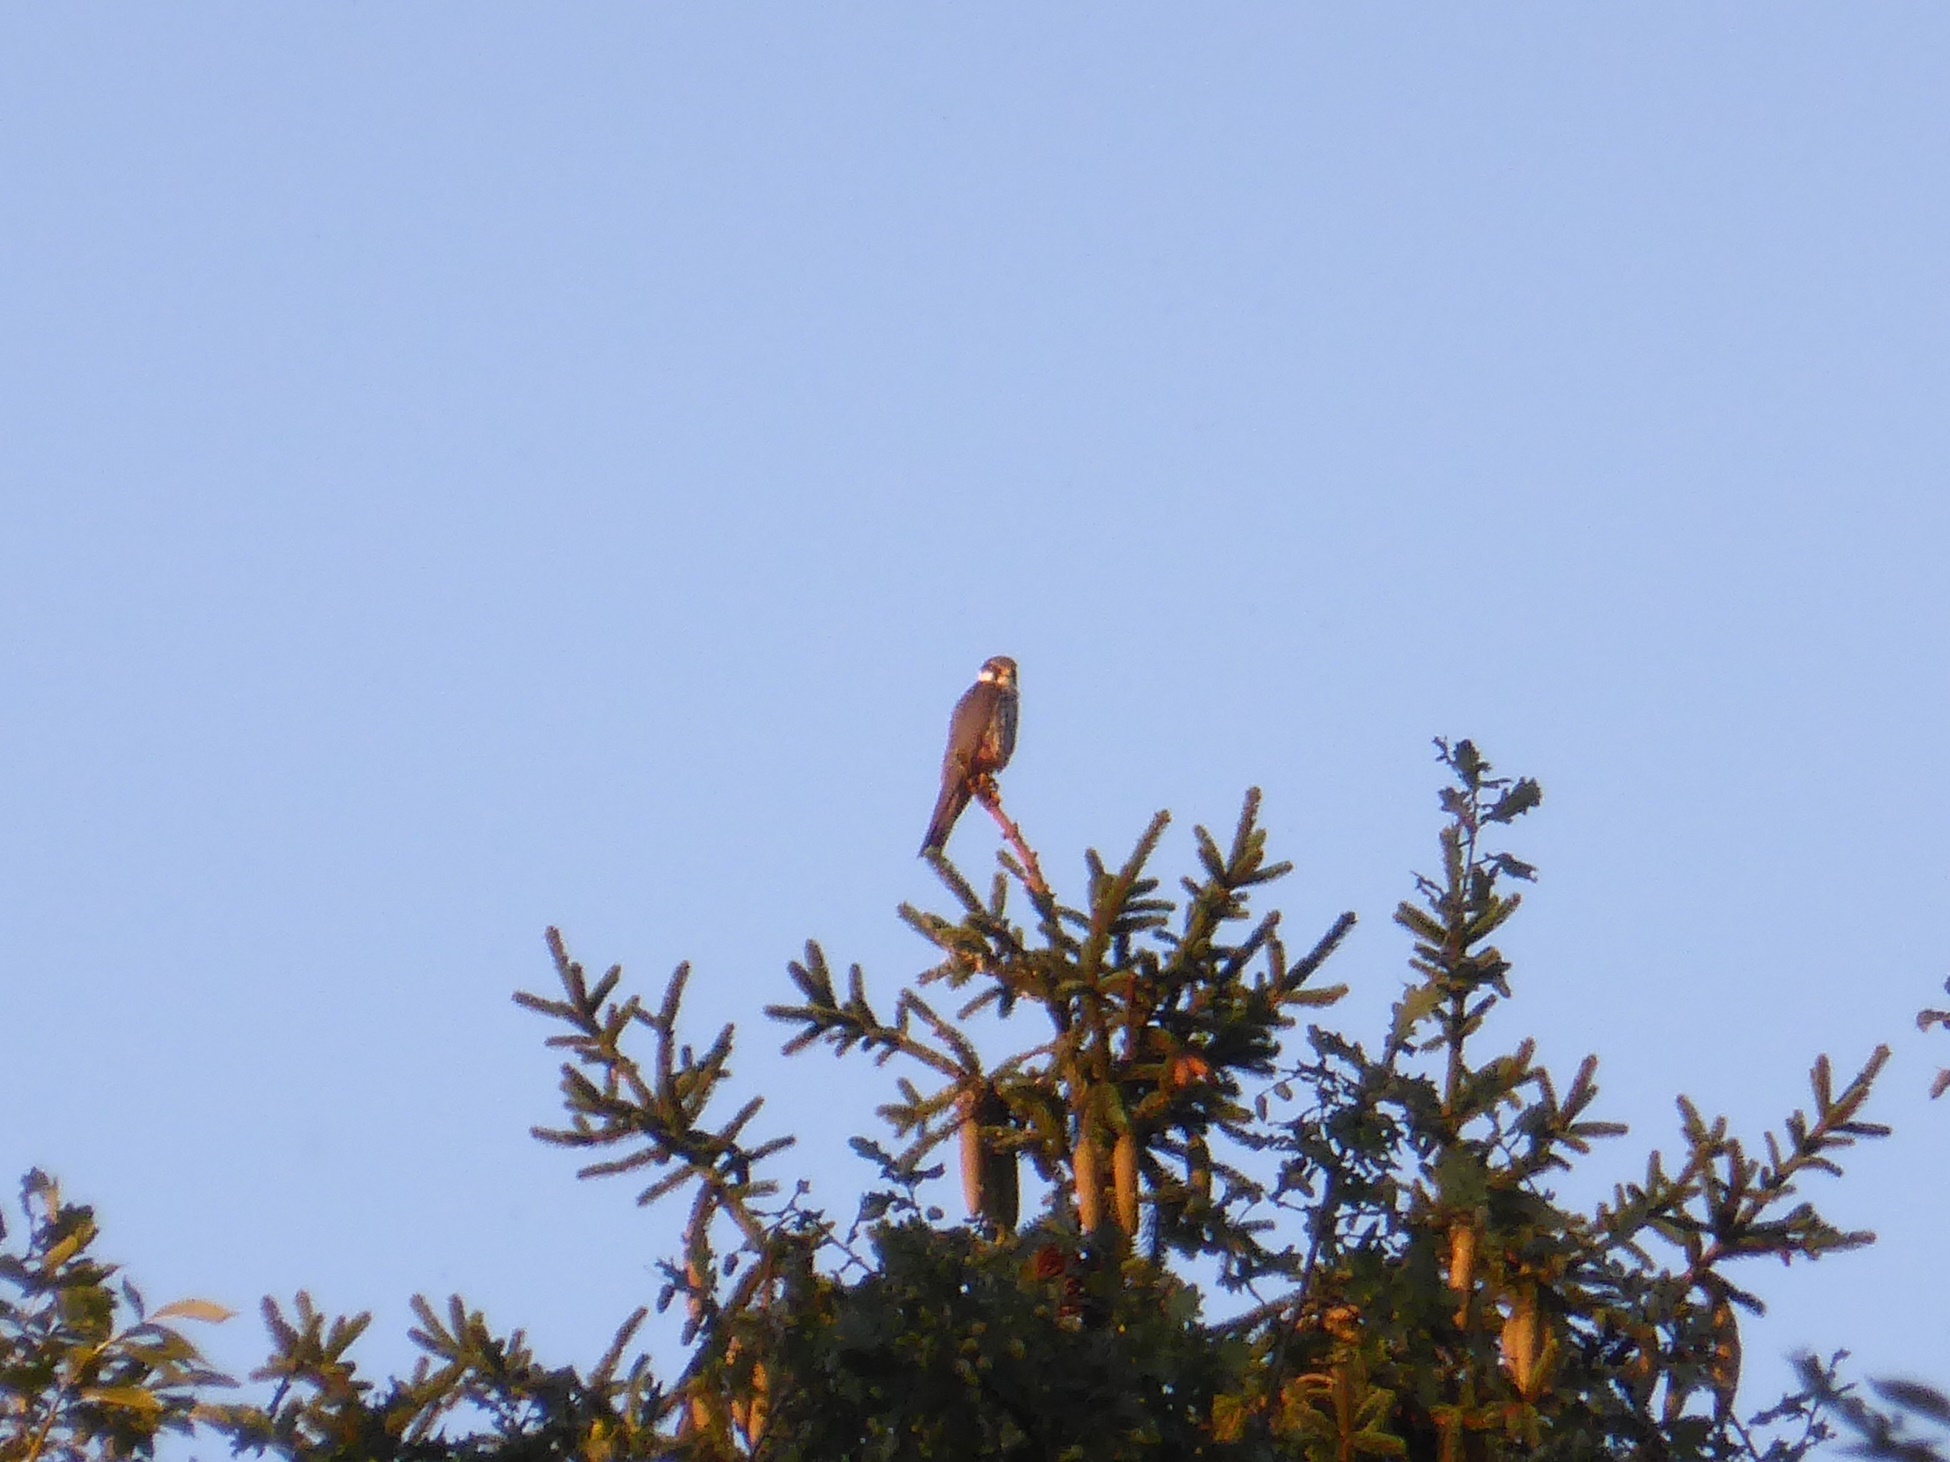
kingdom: Animalia
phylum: Chordata
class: Aves
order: Falconiformes
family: Falconidae
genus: Falco
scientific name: Falco subbuteo
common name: Eurasian hobby
